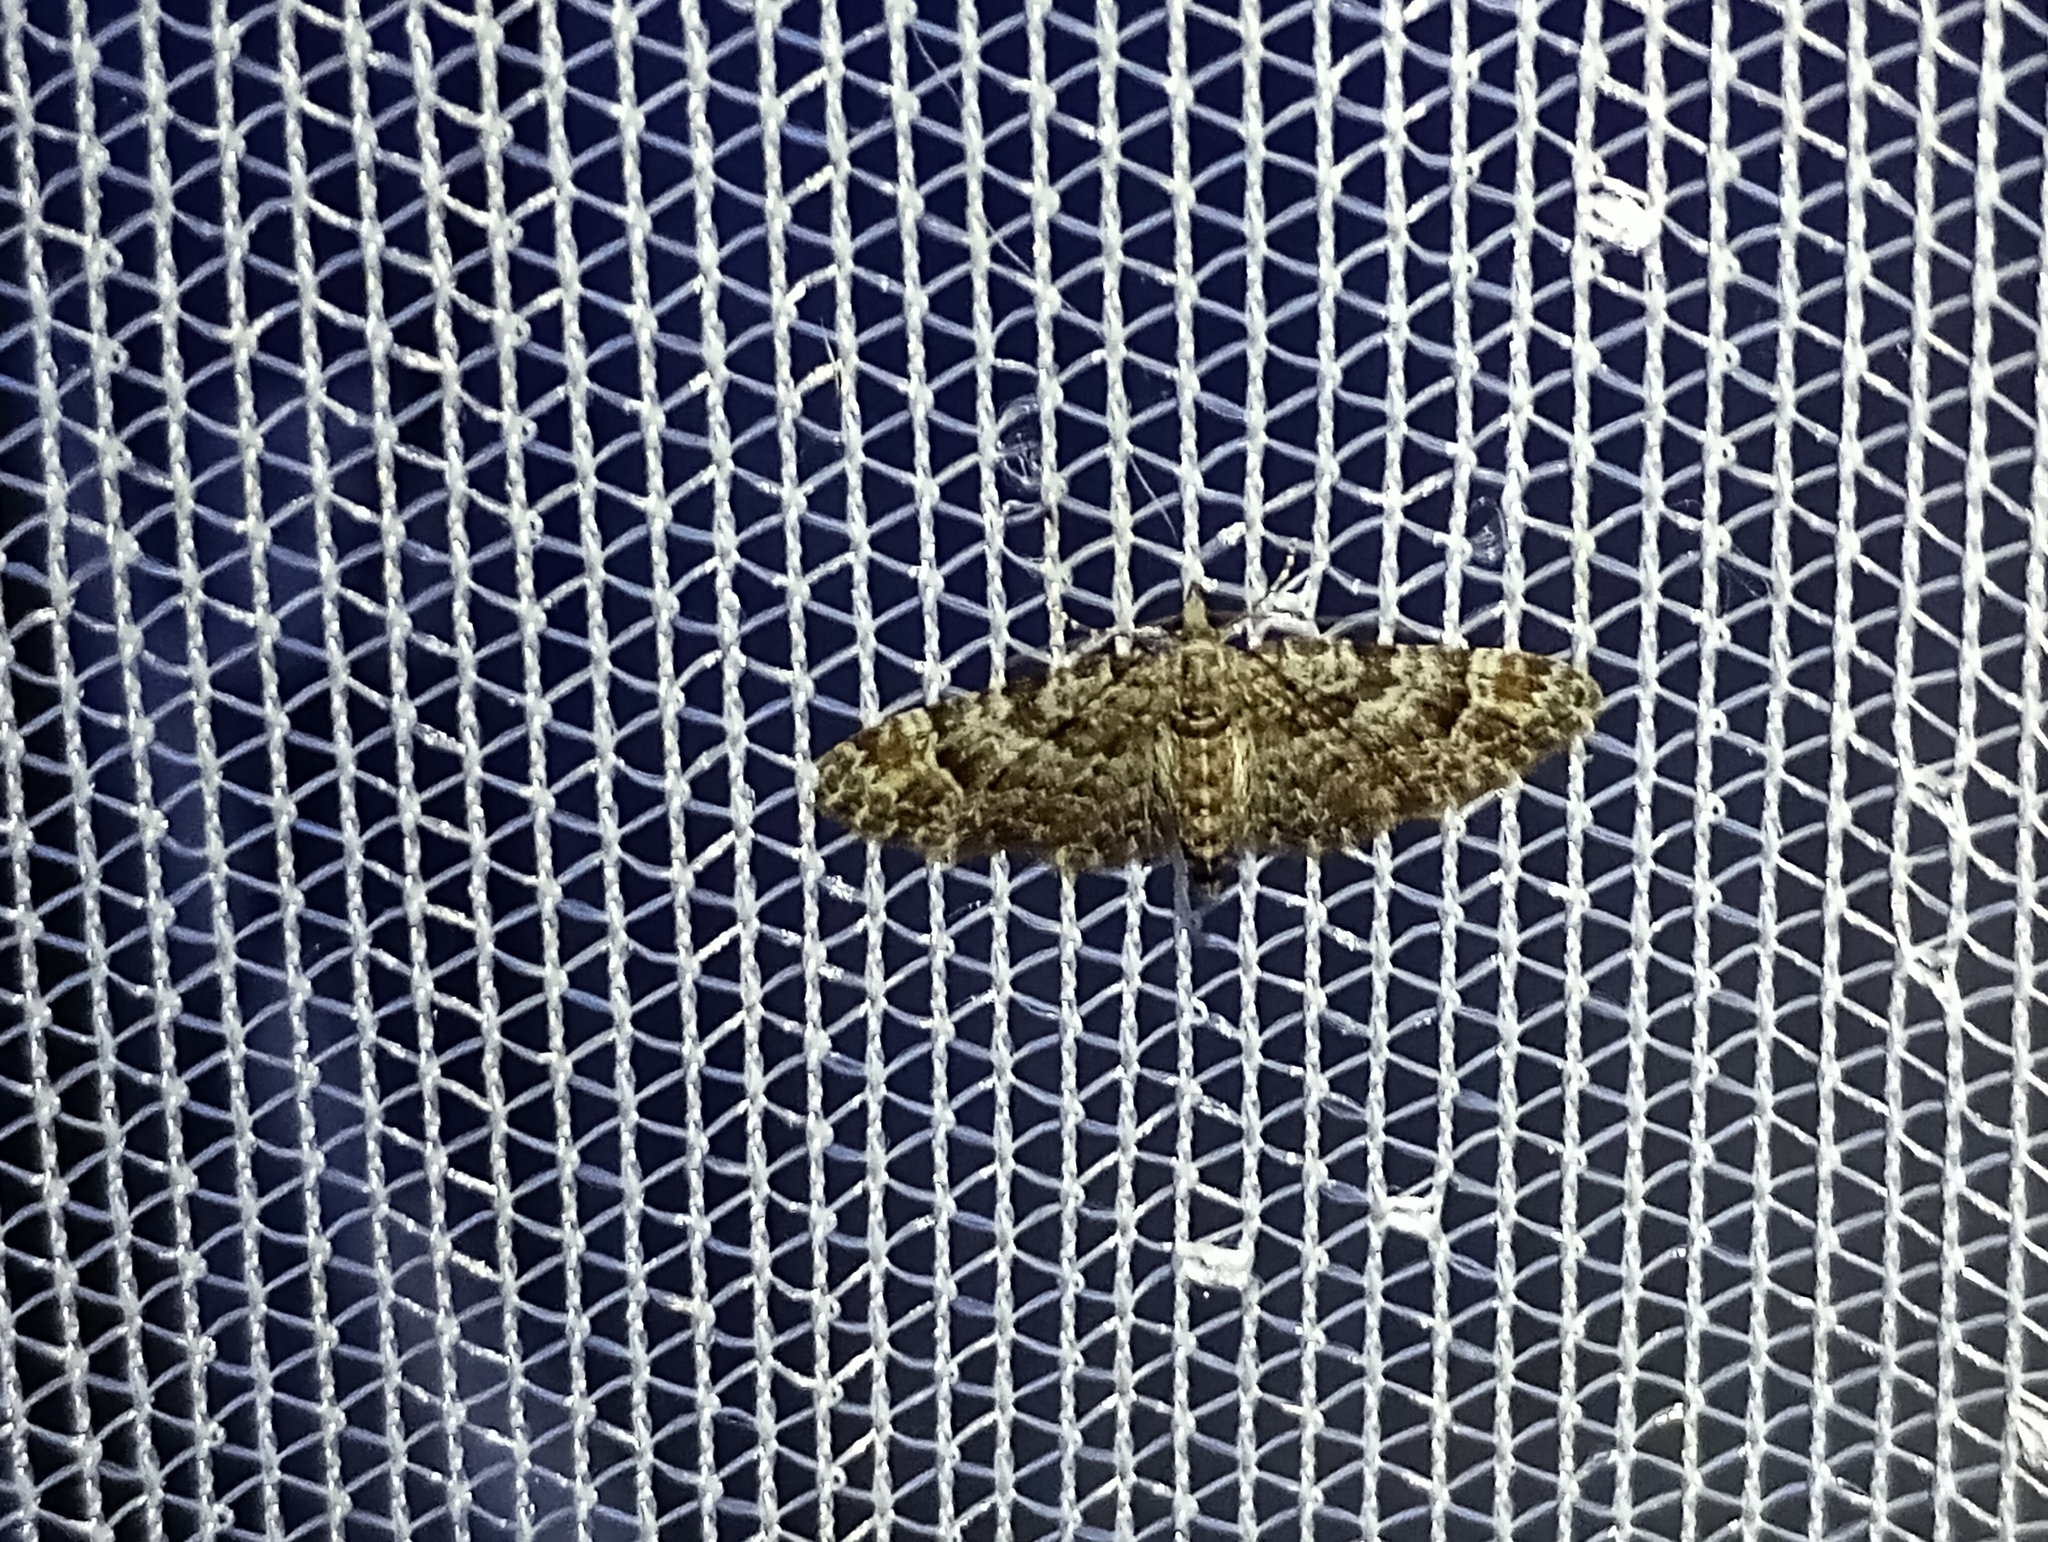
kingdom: Animalia
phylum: Arthropoda
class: Insecta
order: Lepidoptera
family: Geometridae
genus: Gymnoscelis
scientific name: Gymnoscelis rufifasciata
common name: Double-striped pug
